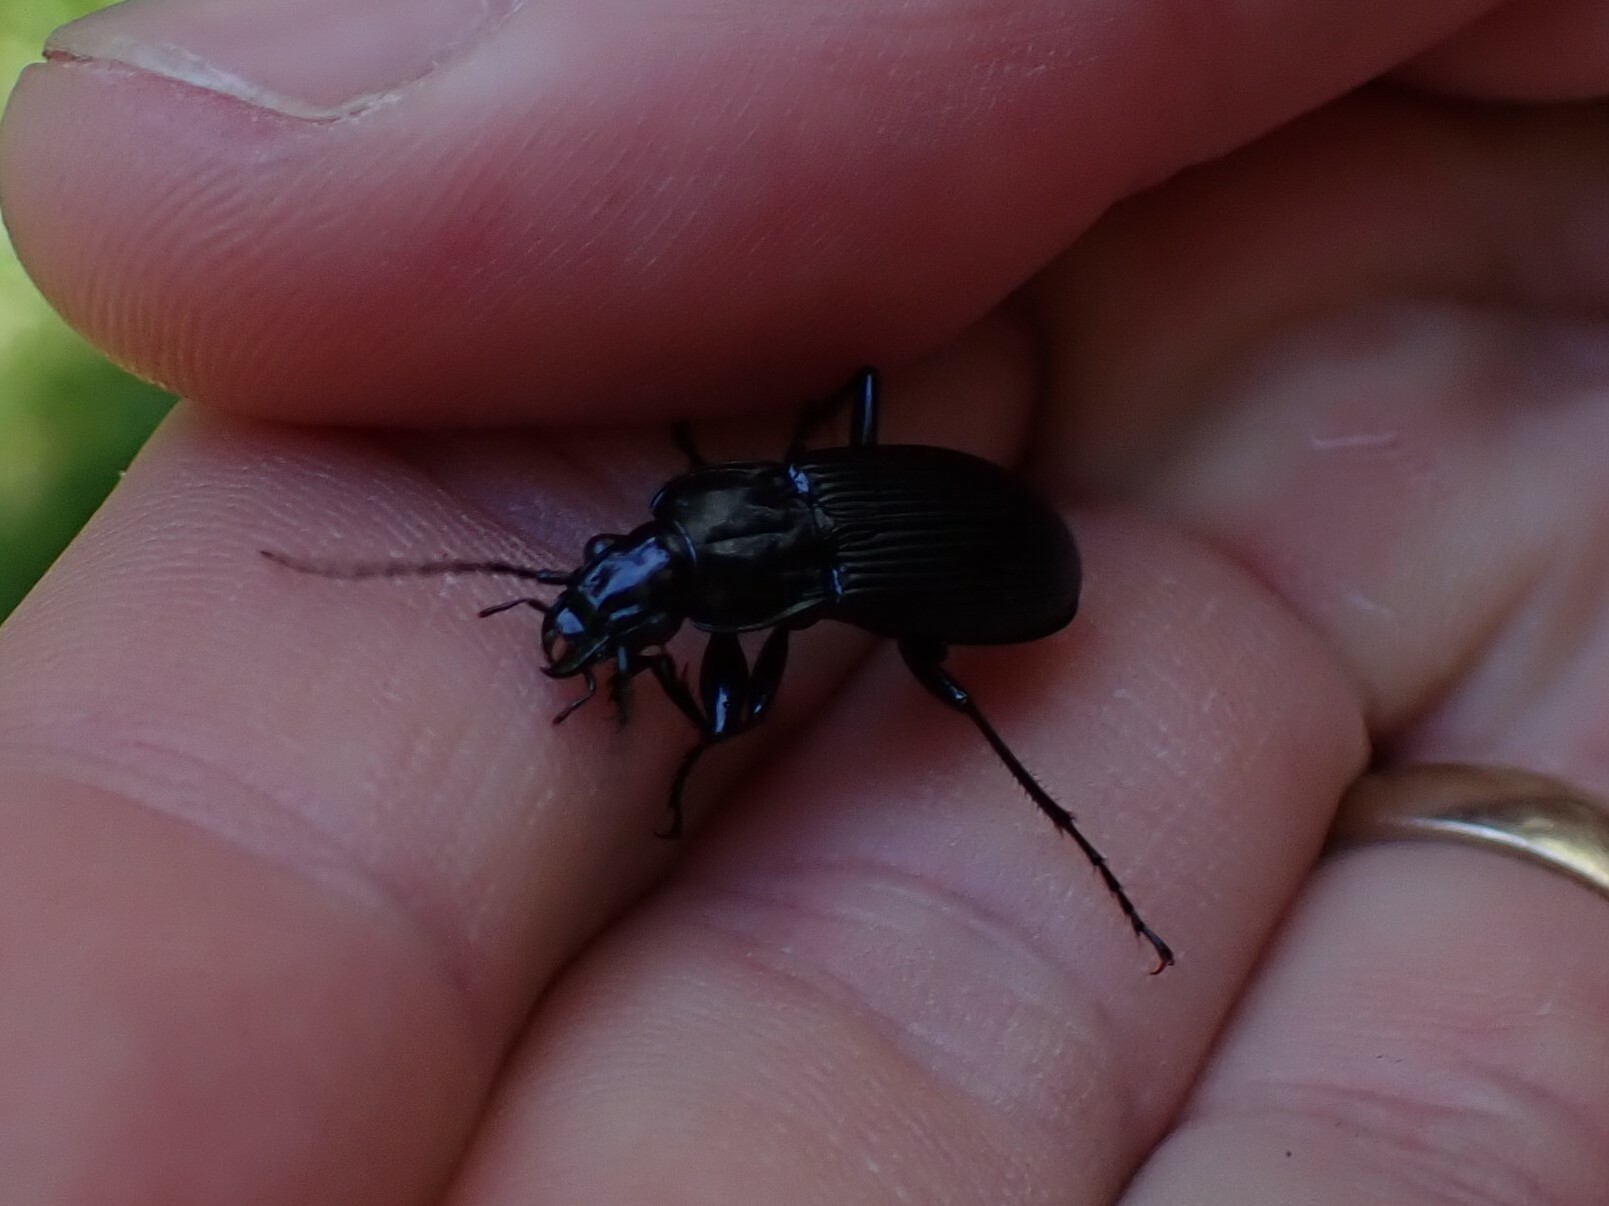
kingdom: Animalia
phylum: Arthropoda
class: Insecta
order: Coleoptera
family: Carabidae
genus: Pterostichus
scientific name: Pterostichus niger
